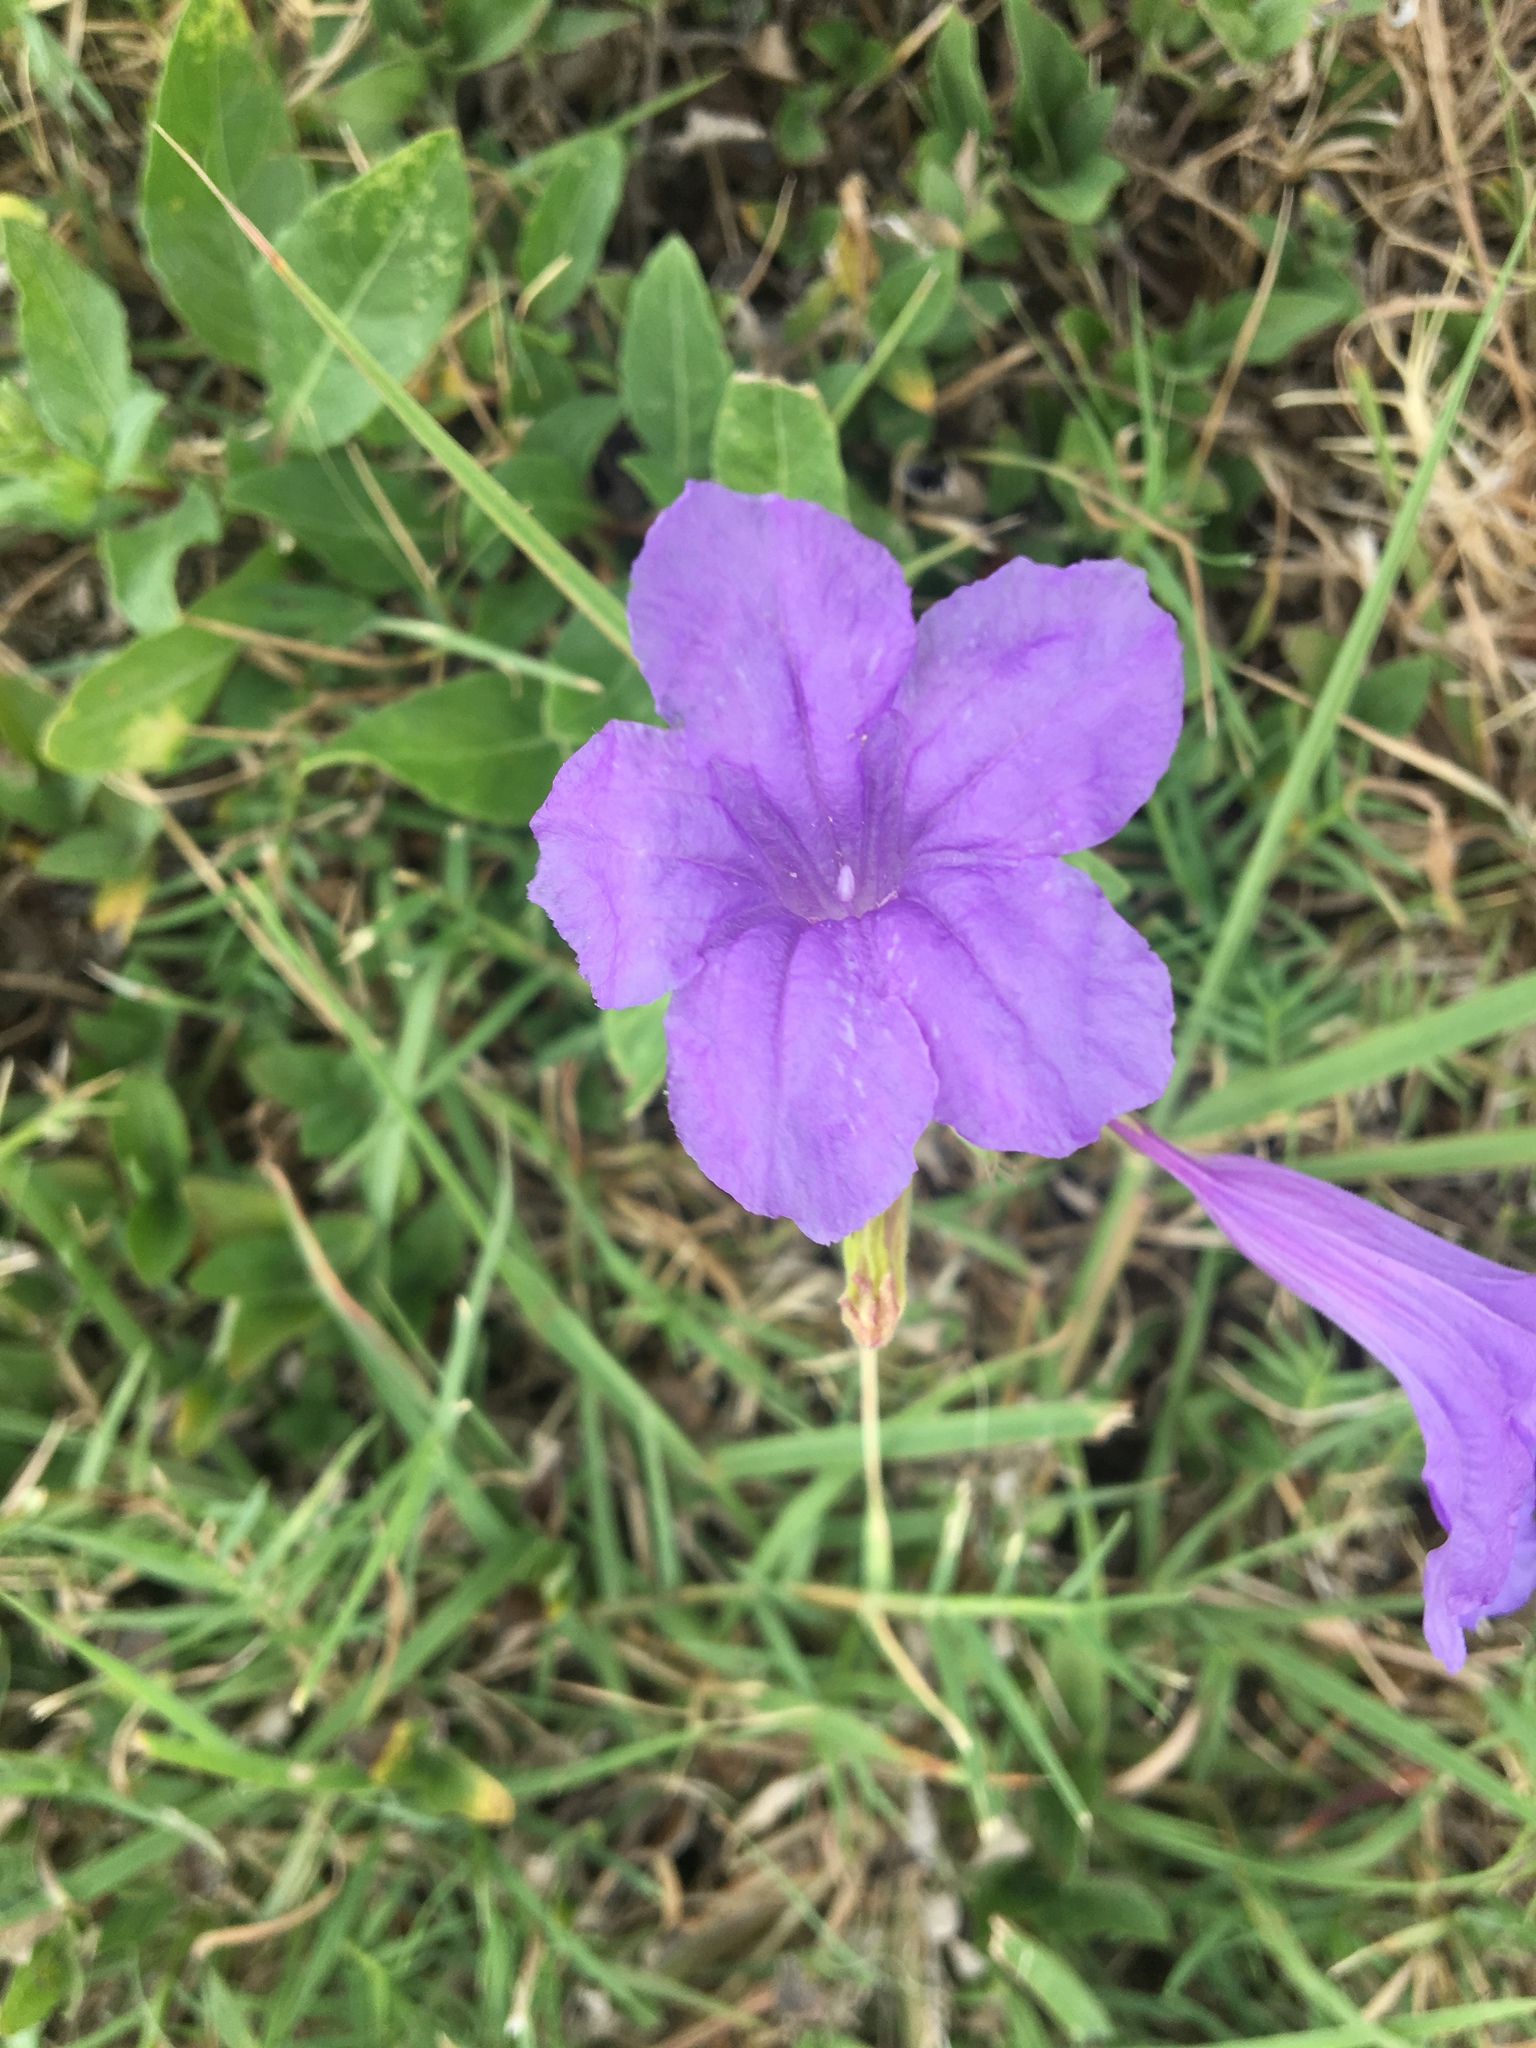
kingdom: Plantae
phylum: Tracheophyta
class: Magnoliopsida
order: Lamiales
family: Acanthaceae
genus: Ruellia
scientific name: Ruellia ciliatiflora
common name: Hairyflower wild petunia
